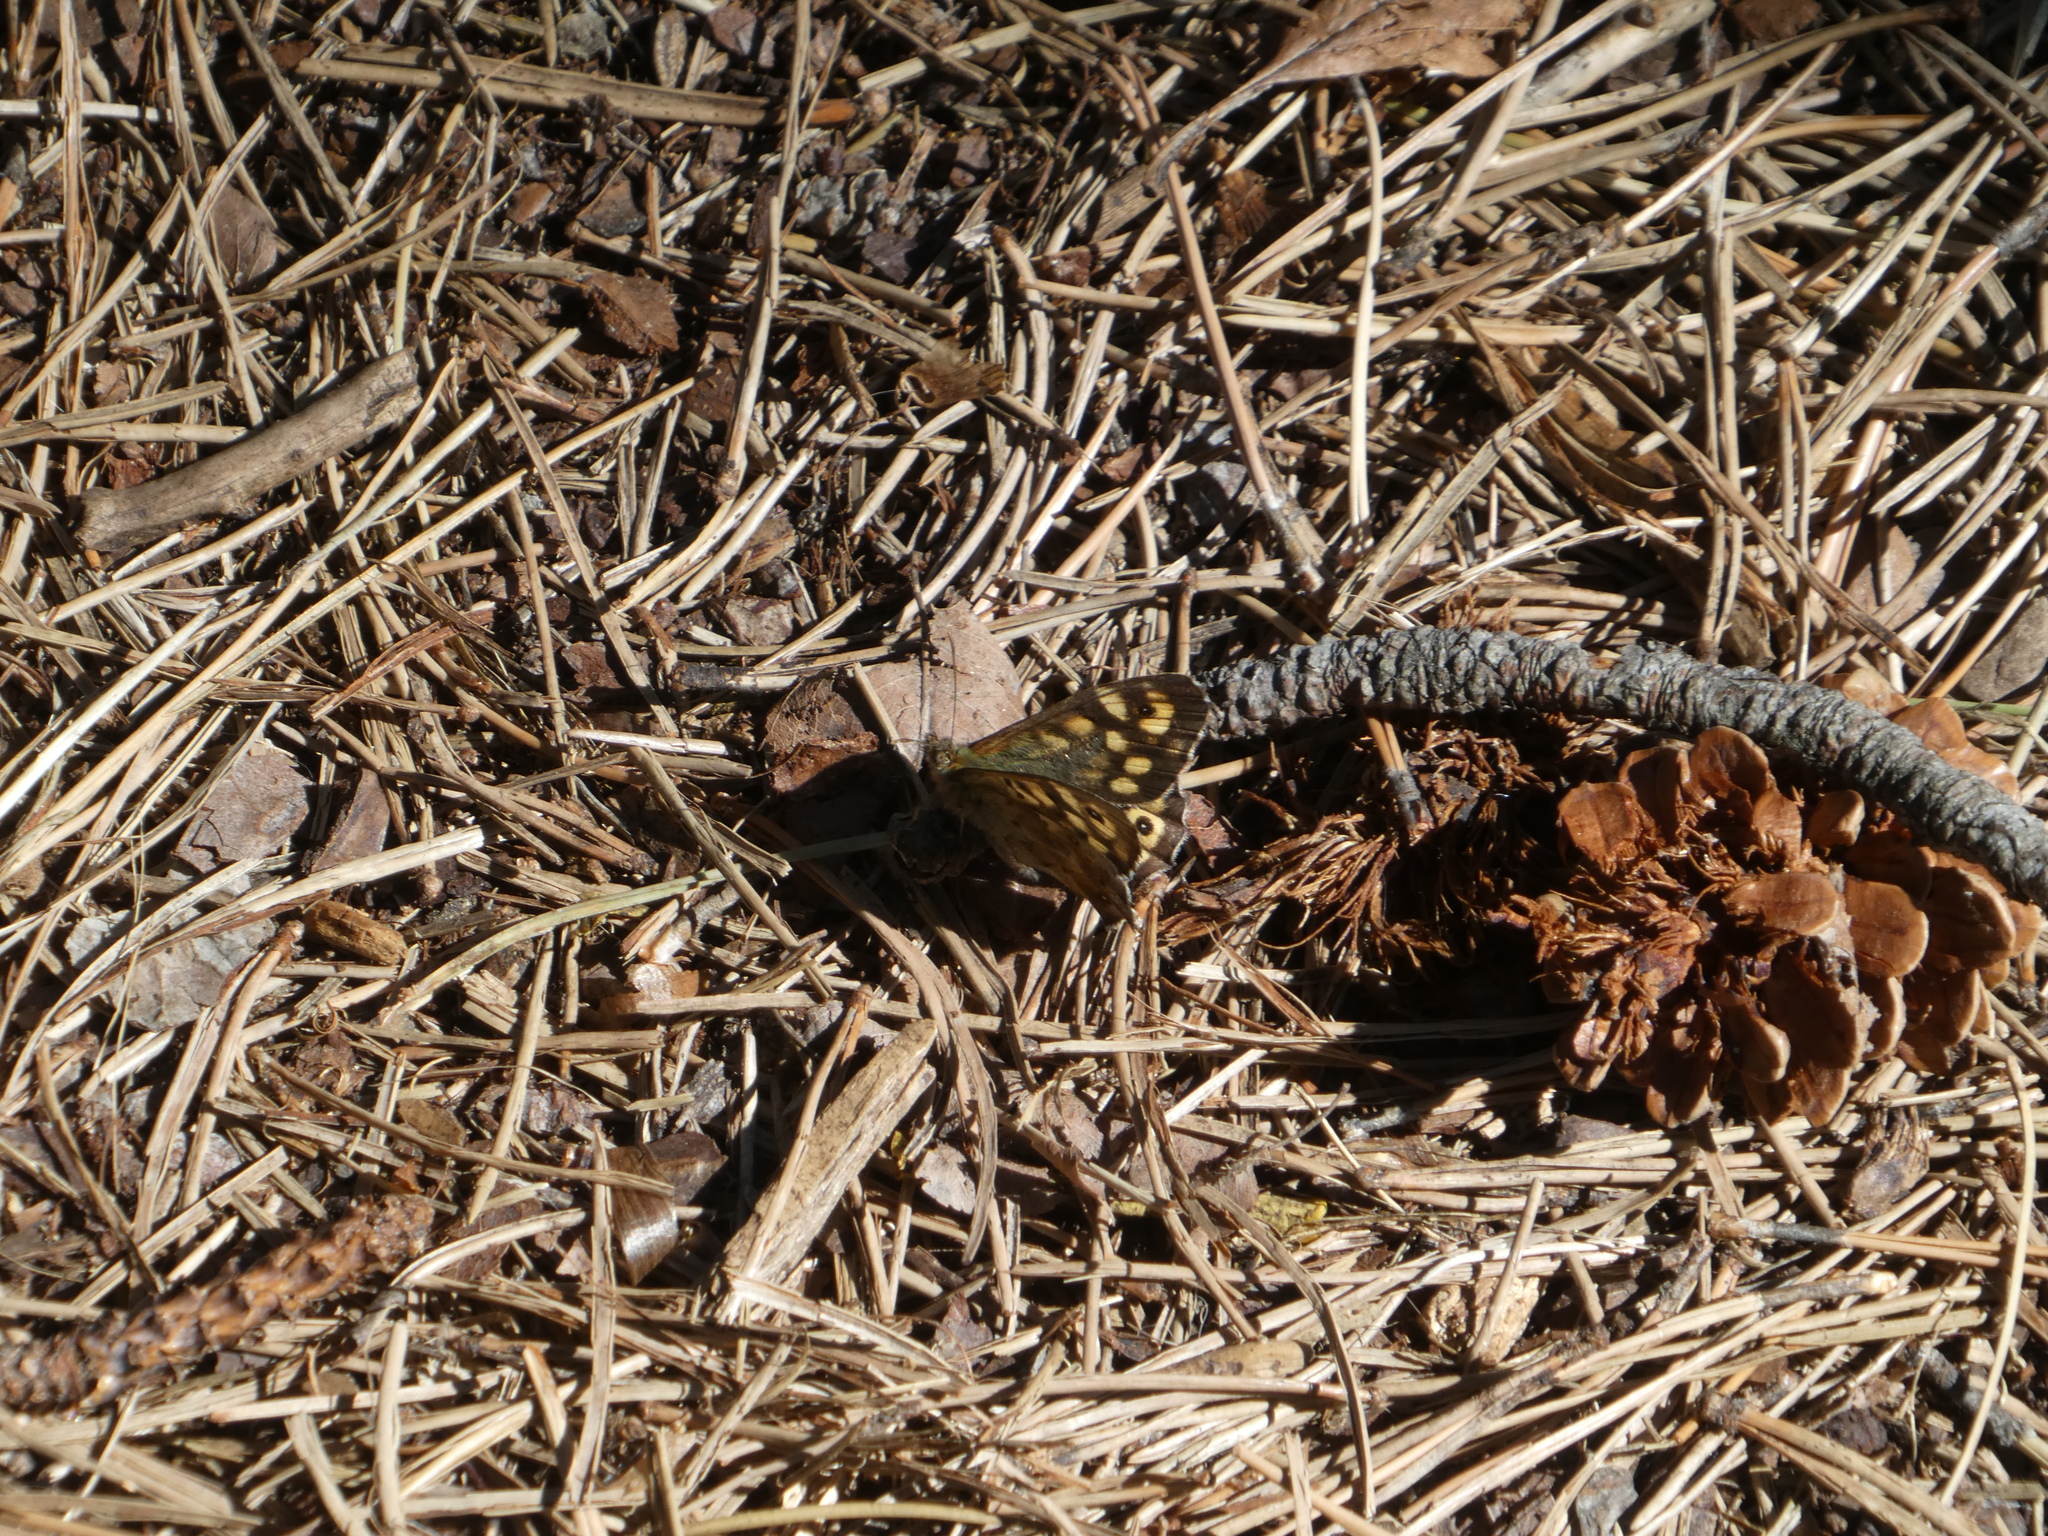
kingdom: Animalia
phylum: Arthropoda
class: Insecta
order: Lepidoptera
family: Nymphalidae
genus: Pararge
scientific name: Pararge aegeria
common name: Speckled wood
